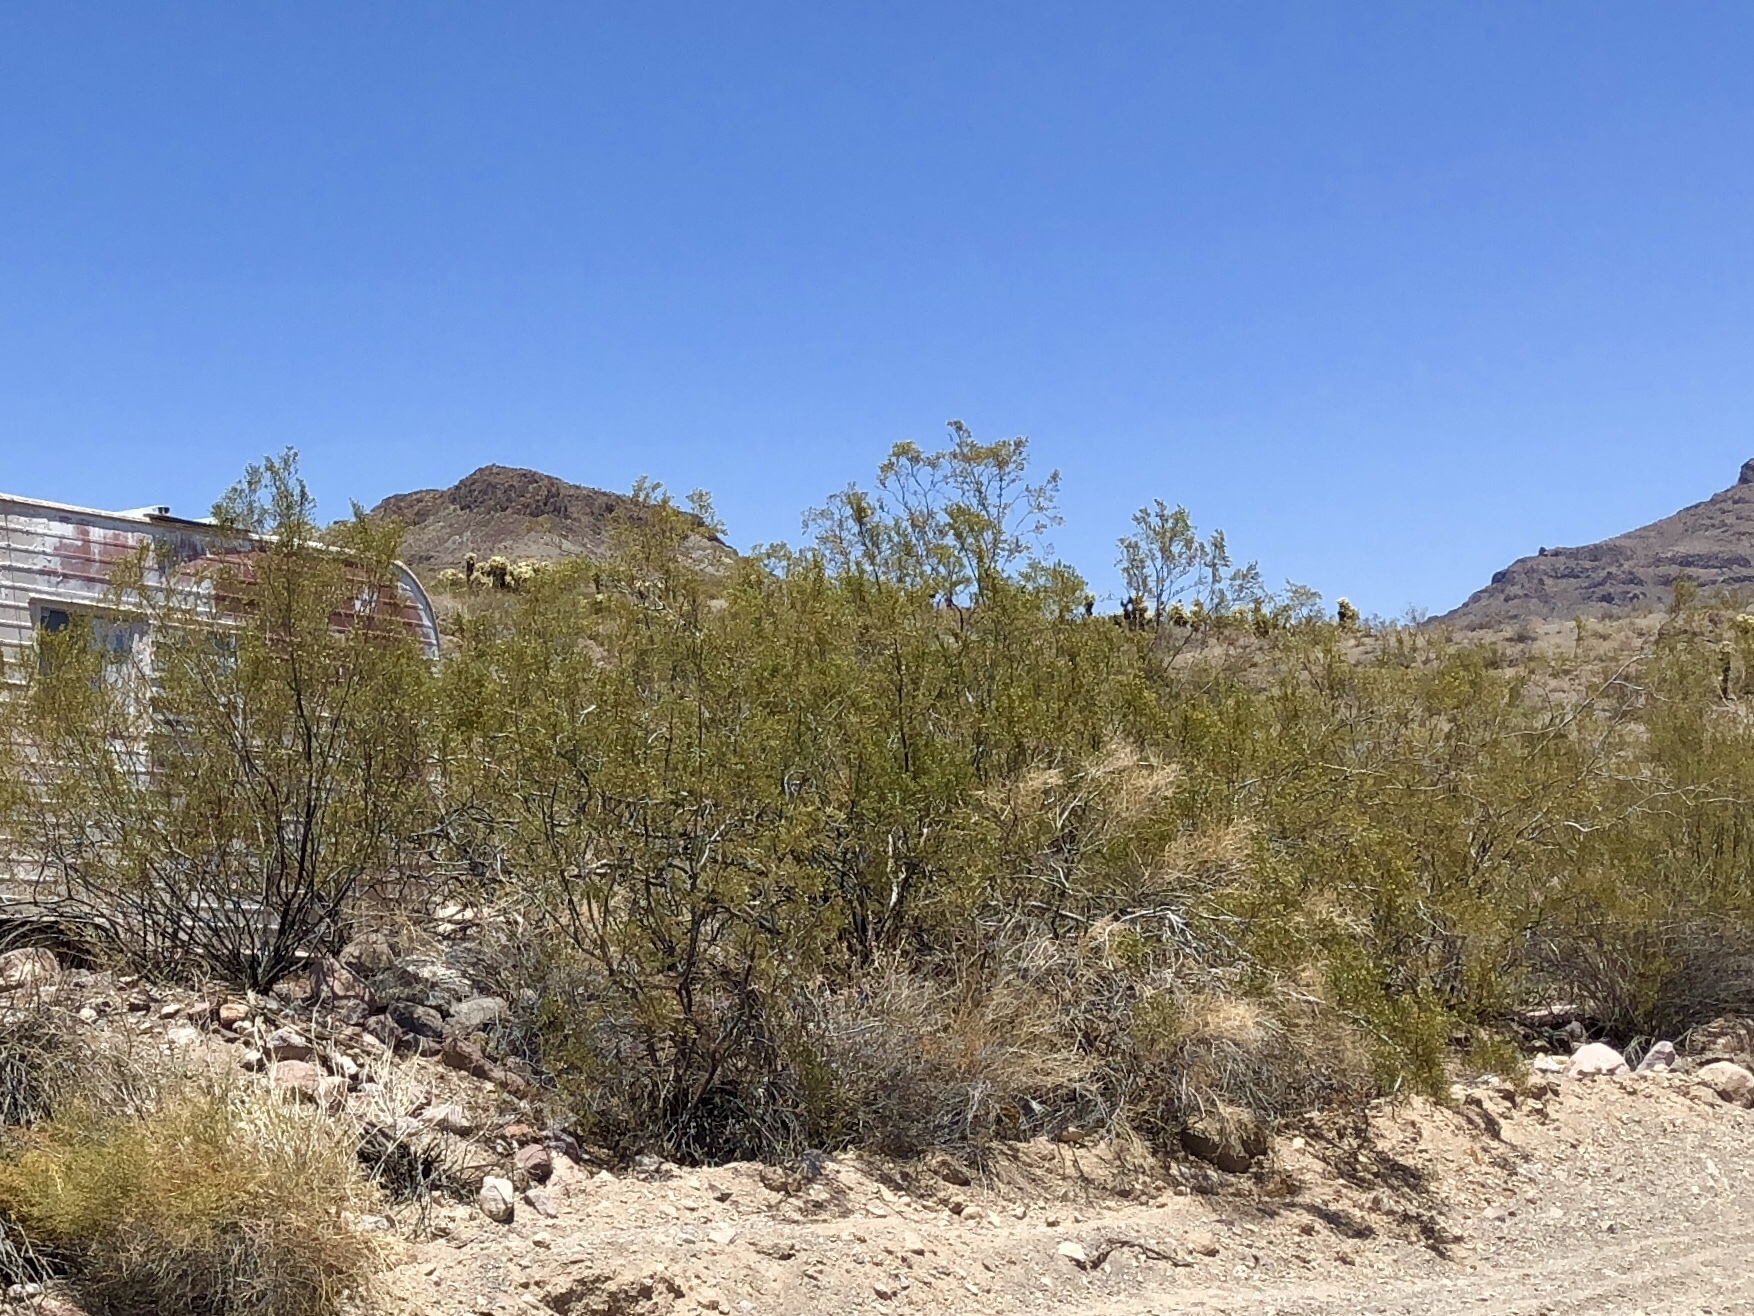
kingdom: Plantae
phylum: Tracheophyta
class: Magnoliopsida
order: Zygophyllales
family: Zygophyllaceae
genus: Larrea
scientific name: Larrea tridentata
